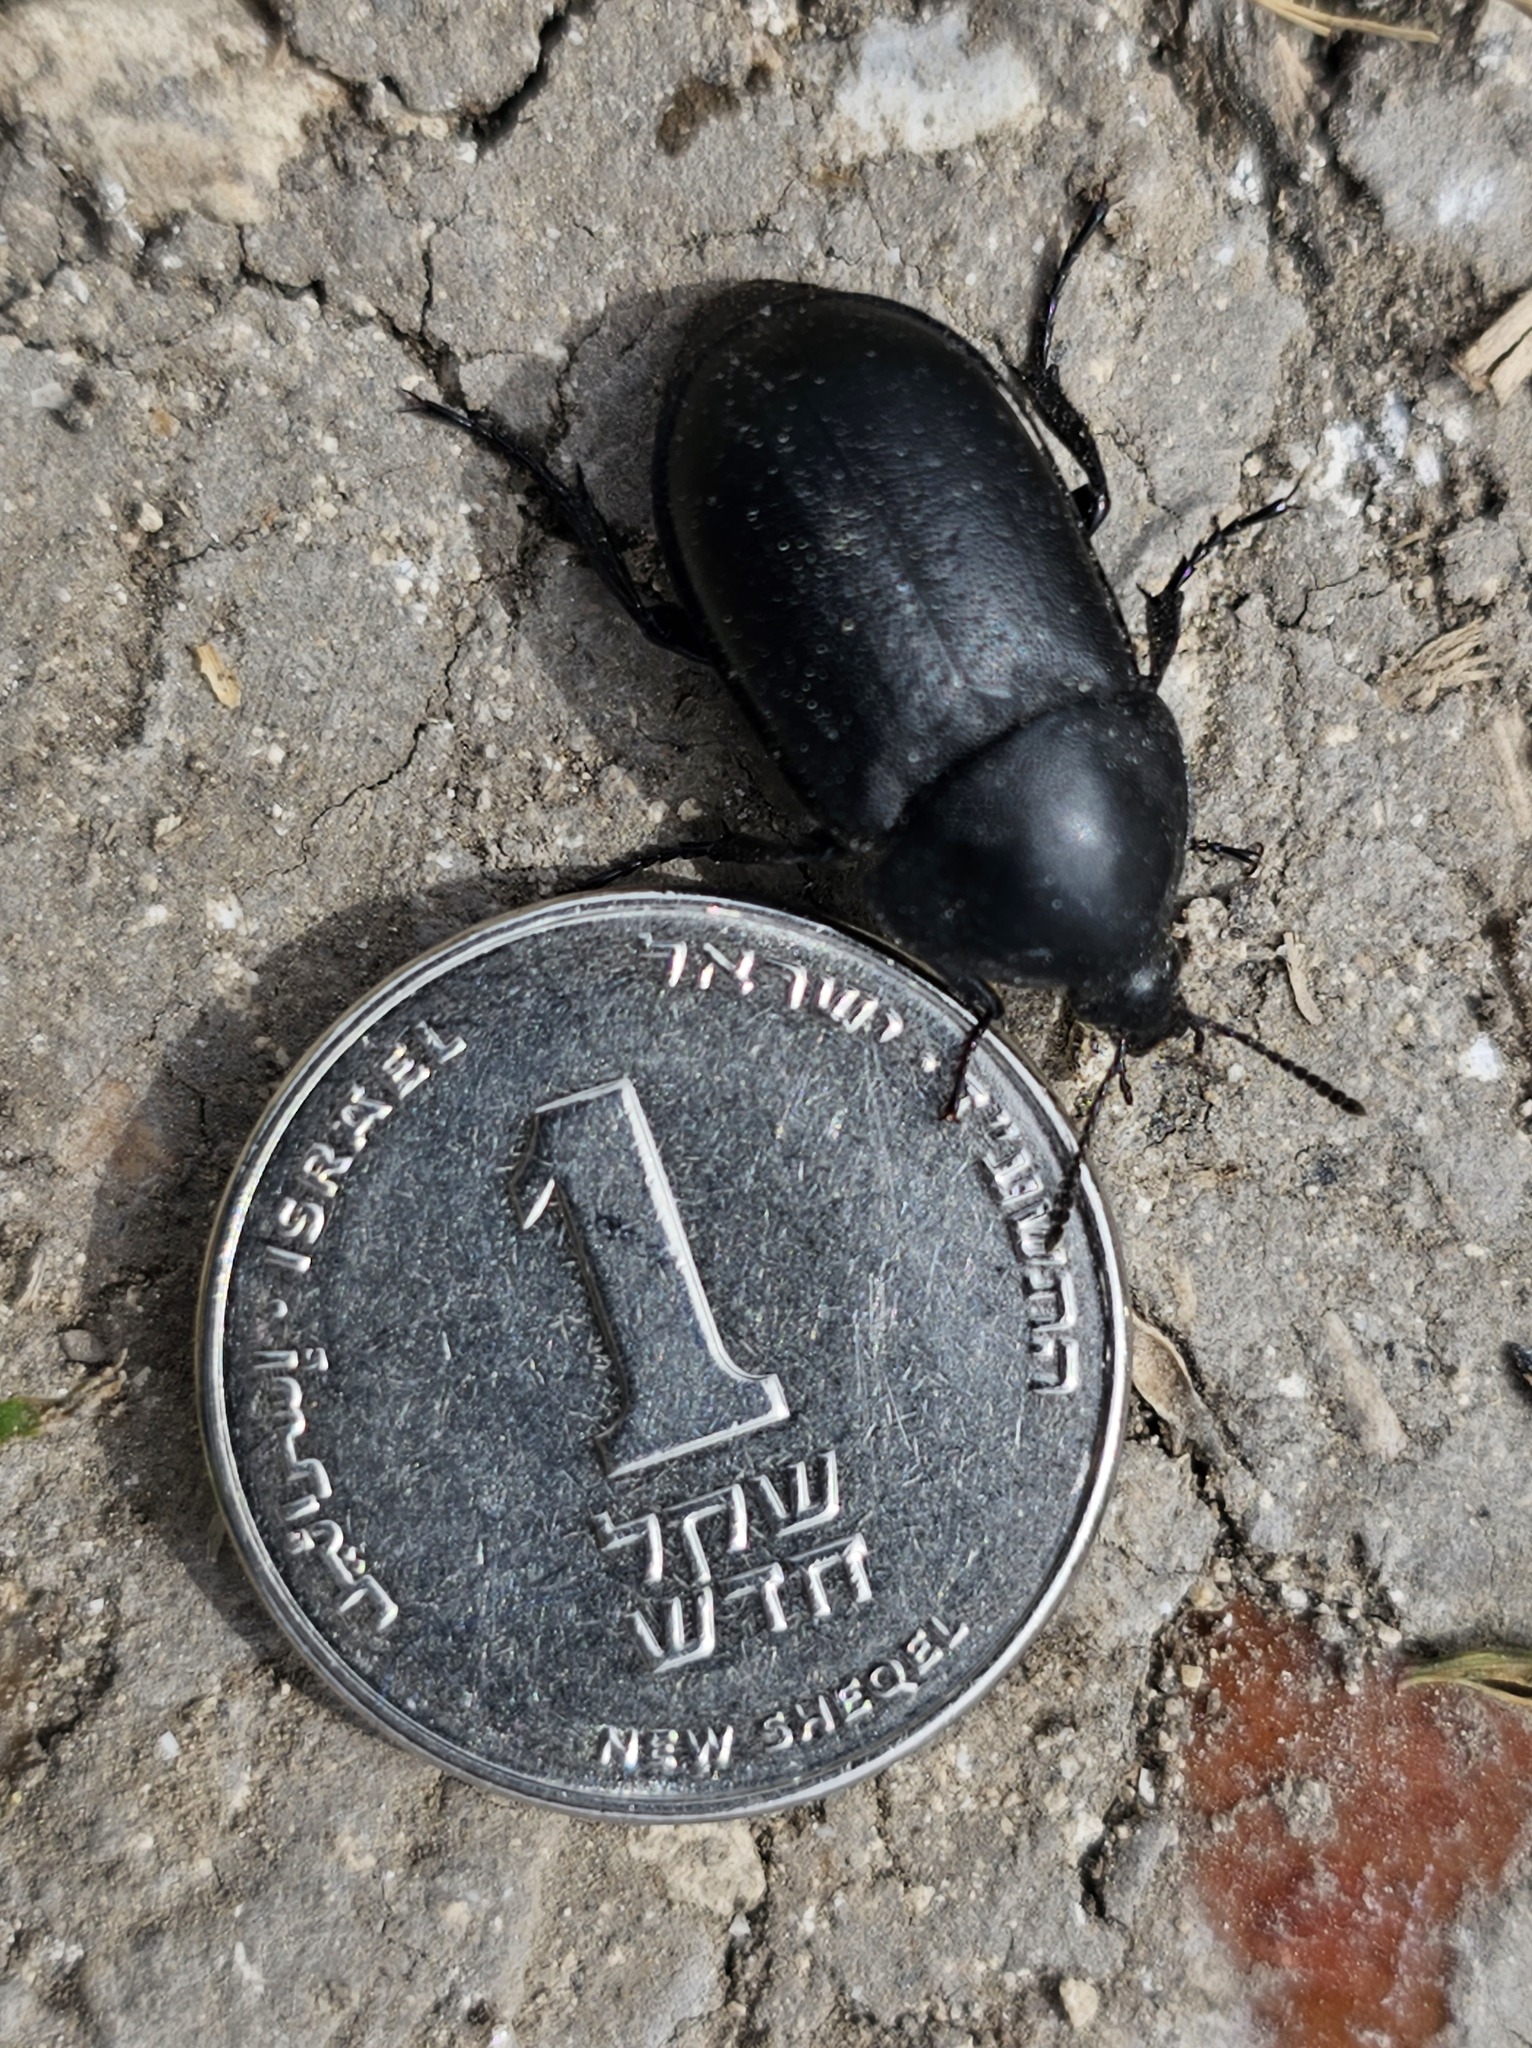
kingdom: Animalia
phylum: Arthropoda
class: Insecta
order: Coleoptera
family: Silphidae
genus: Ablattaria
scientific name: Ablattaria arenaria
